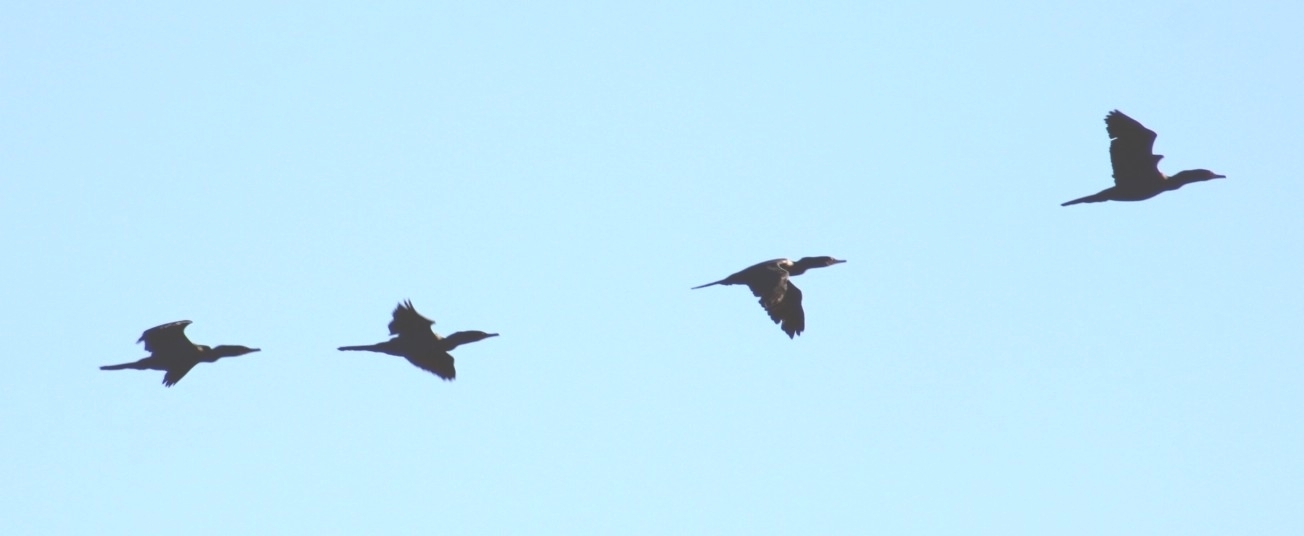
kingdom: Animalia
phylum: Chordata
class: Aves
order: Suliformes
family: Phalacrocoracidae
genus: Phalacrocorax
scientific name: Phalacrocorax auritus
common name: Double-crested cormorant
